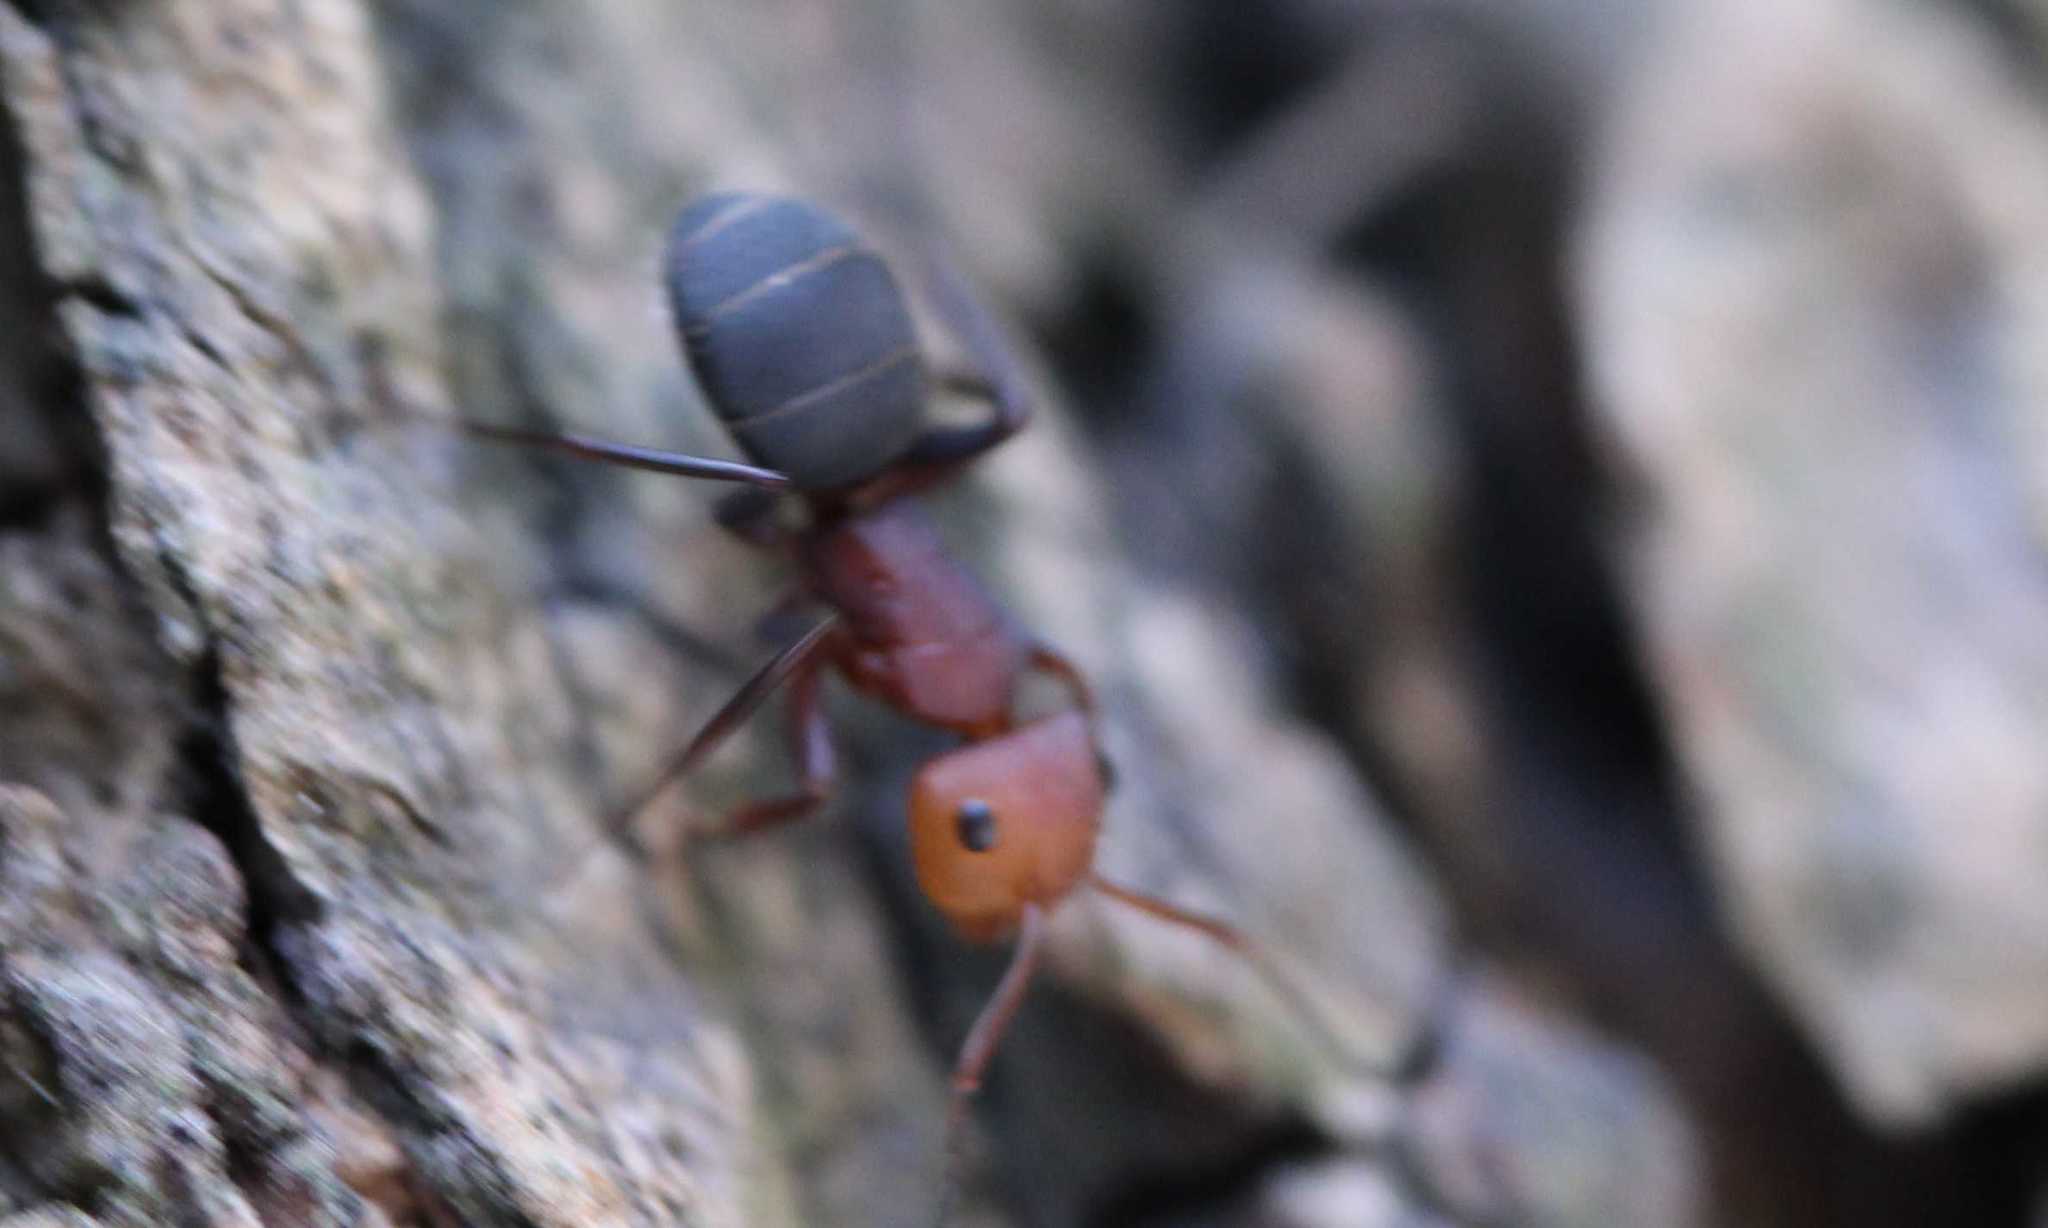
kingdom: Animalia
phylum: Arthropoda
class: Insecta
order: Hymenoptera
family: Formicidae
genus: Camponotus
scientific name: Camponotus rectangularis
